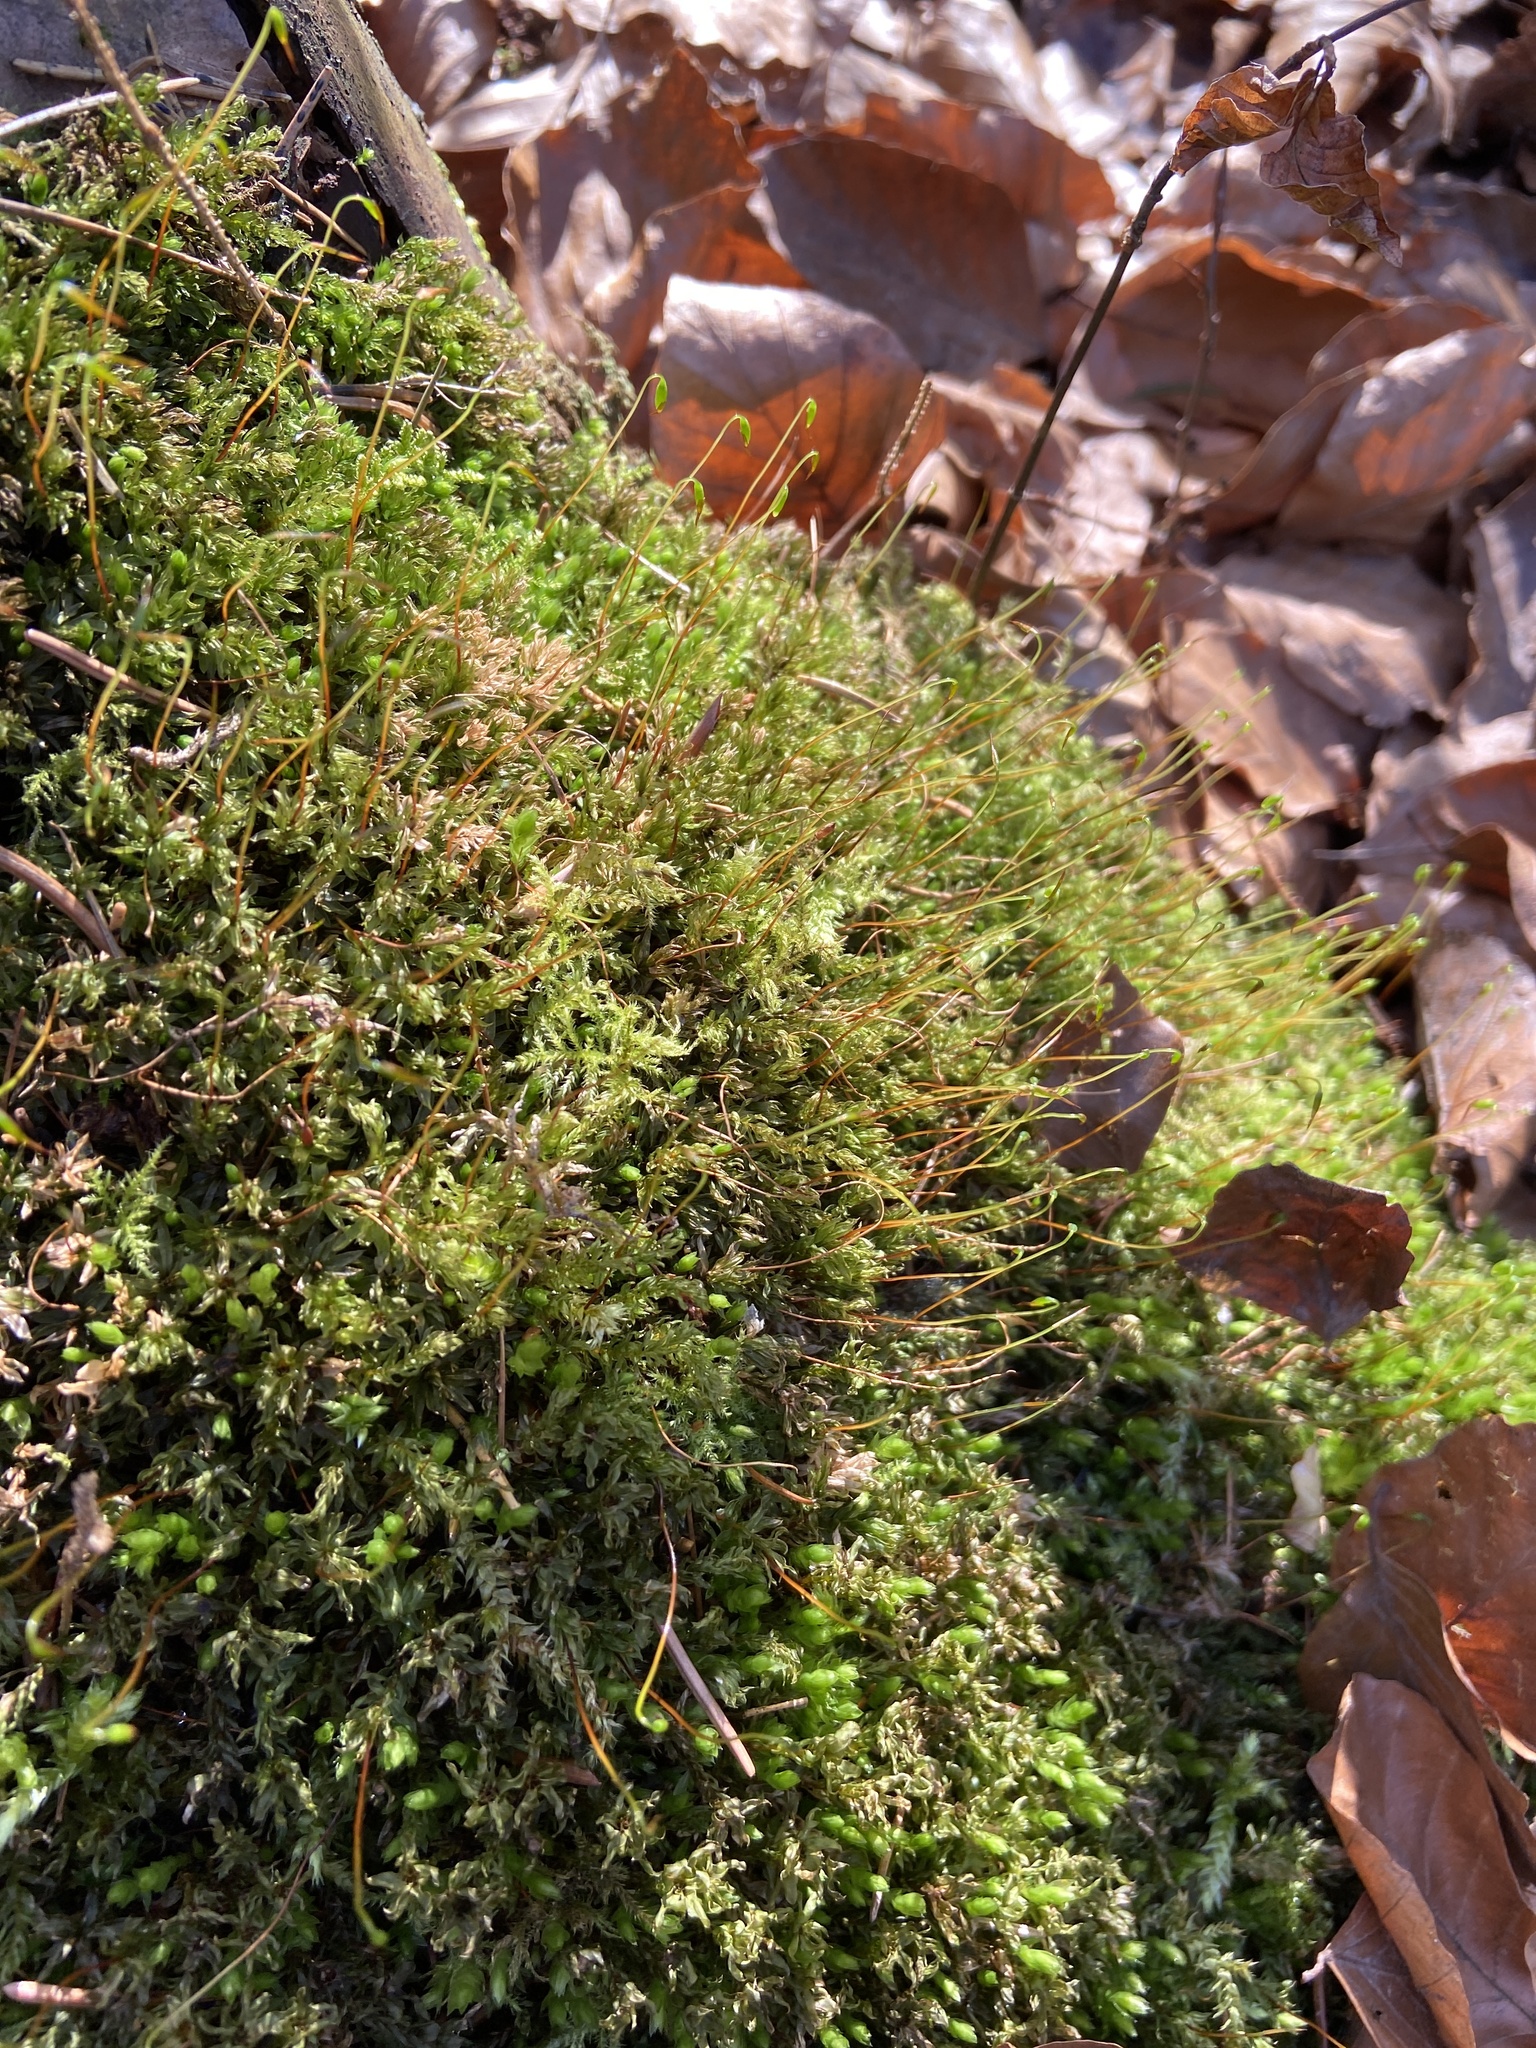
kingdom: Plantae
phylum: Bryophyta
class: Bryopsida
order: Bryales
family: Mniaceae
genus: Mnium
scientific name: Mnium hornum
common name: Swan's-neck leafy moss
